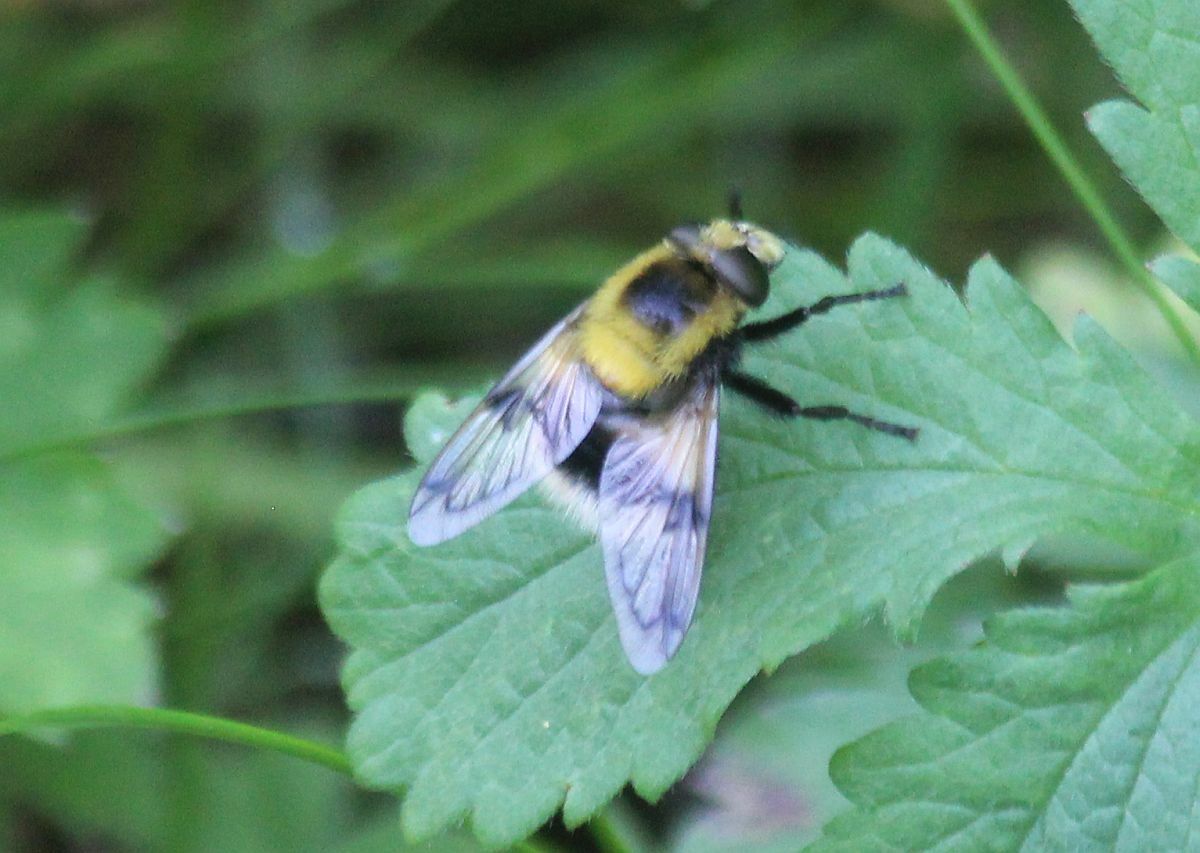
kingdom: Animalia
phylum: Arthropoda
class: Insecta
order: Diptera
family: Syrphidae
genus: Volucella
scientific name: Volucella bombylans
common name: Bumble bee hover fly
